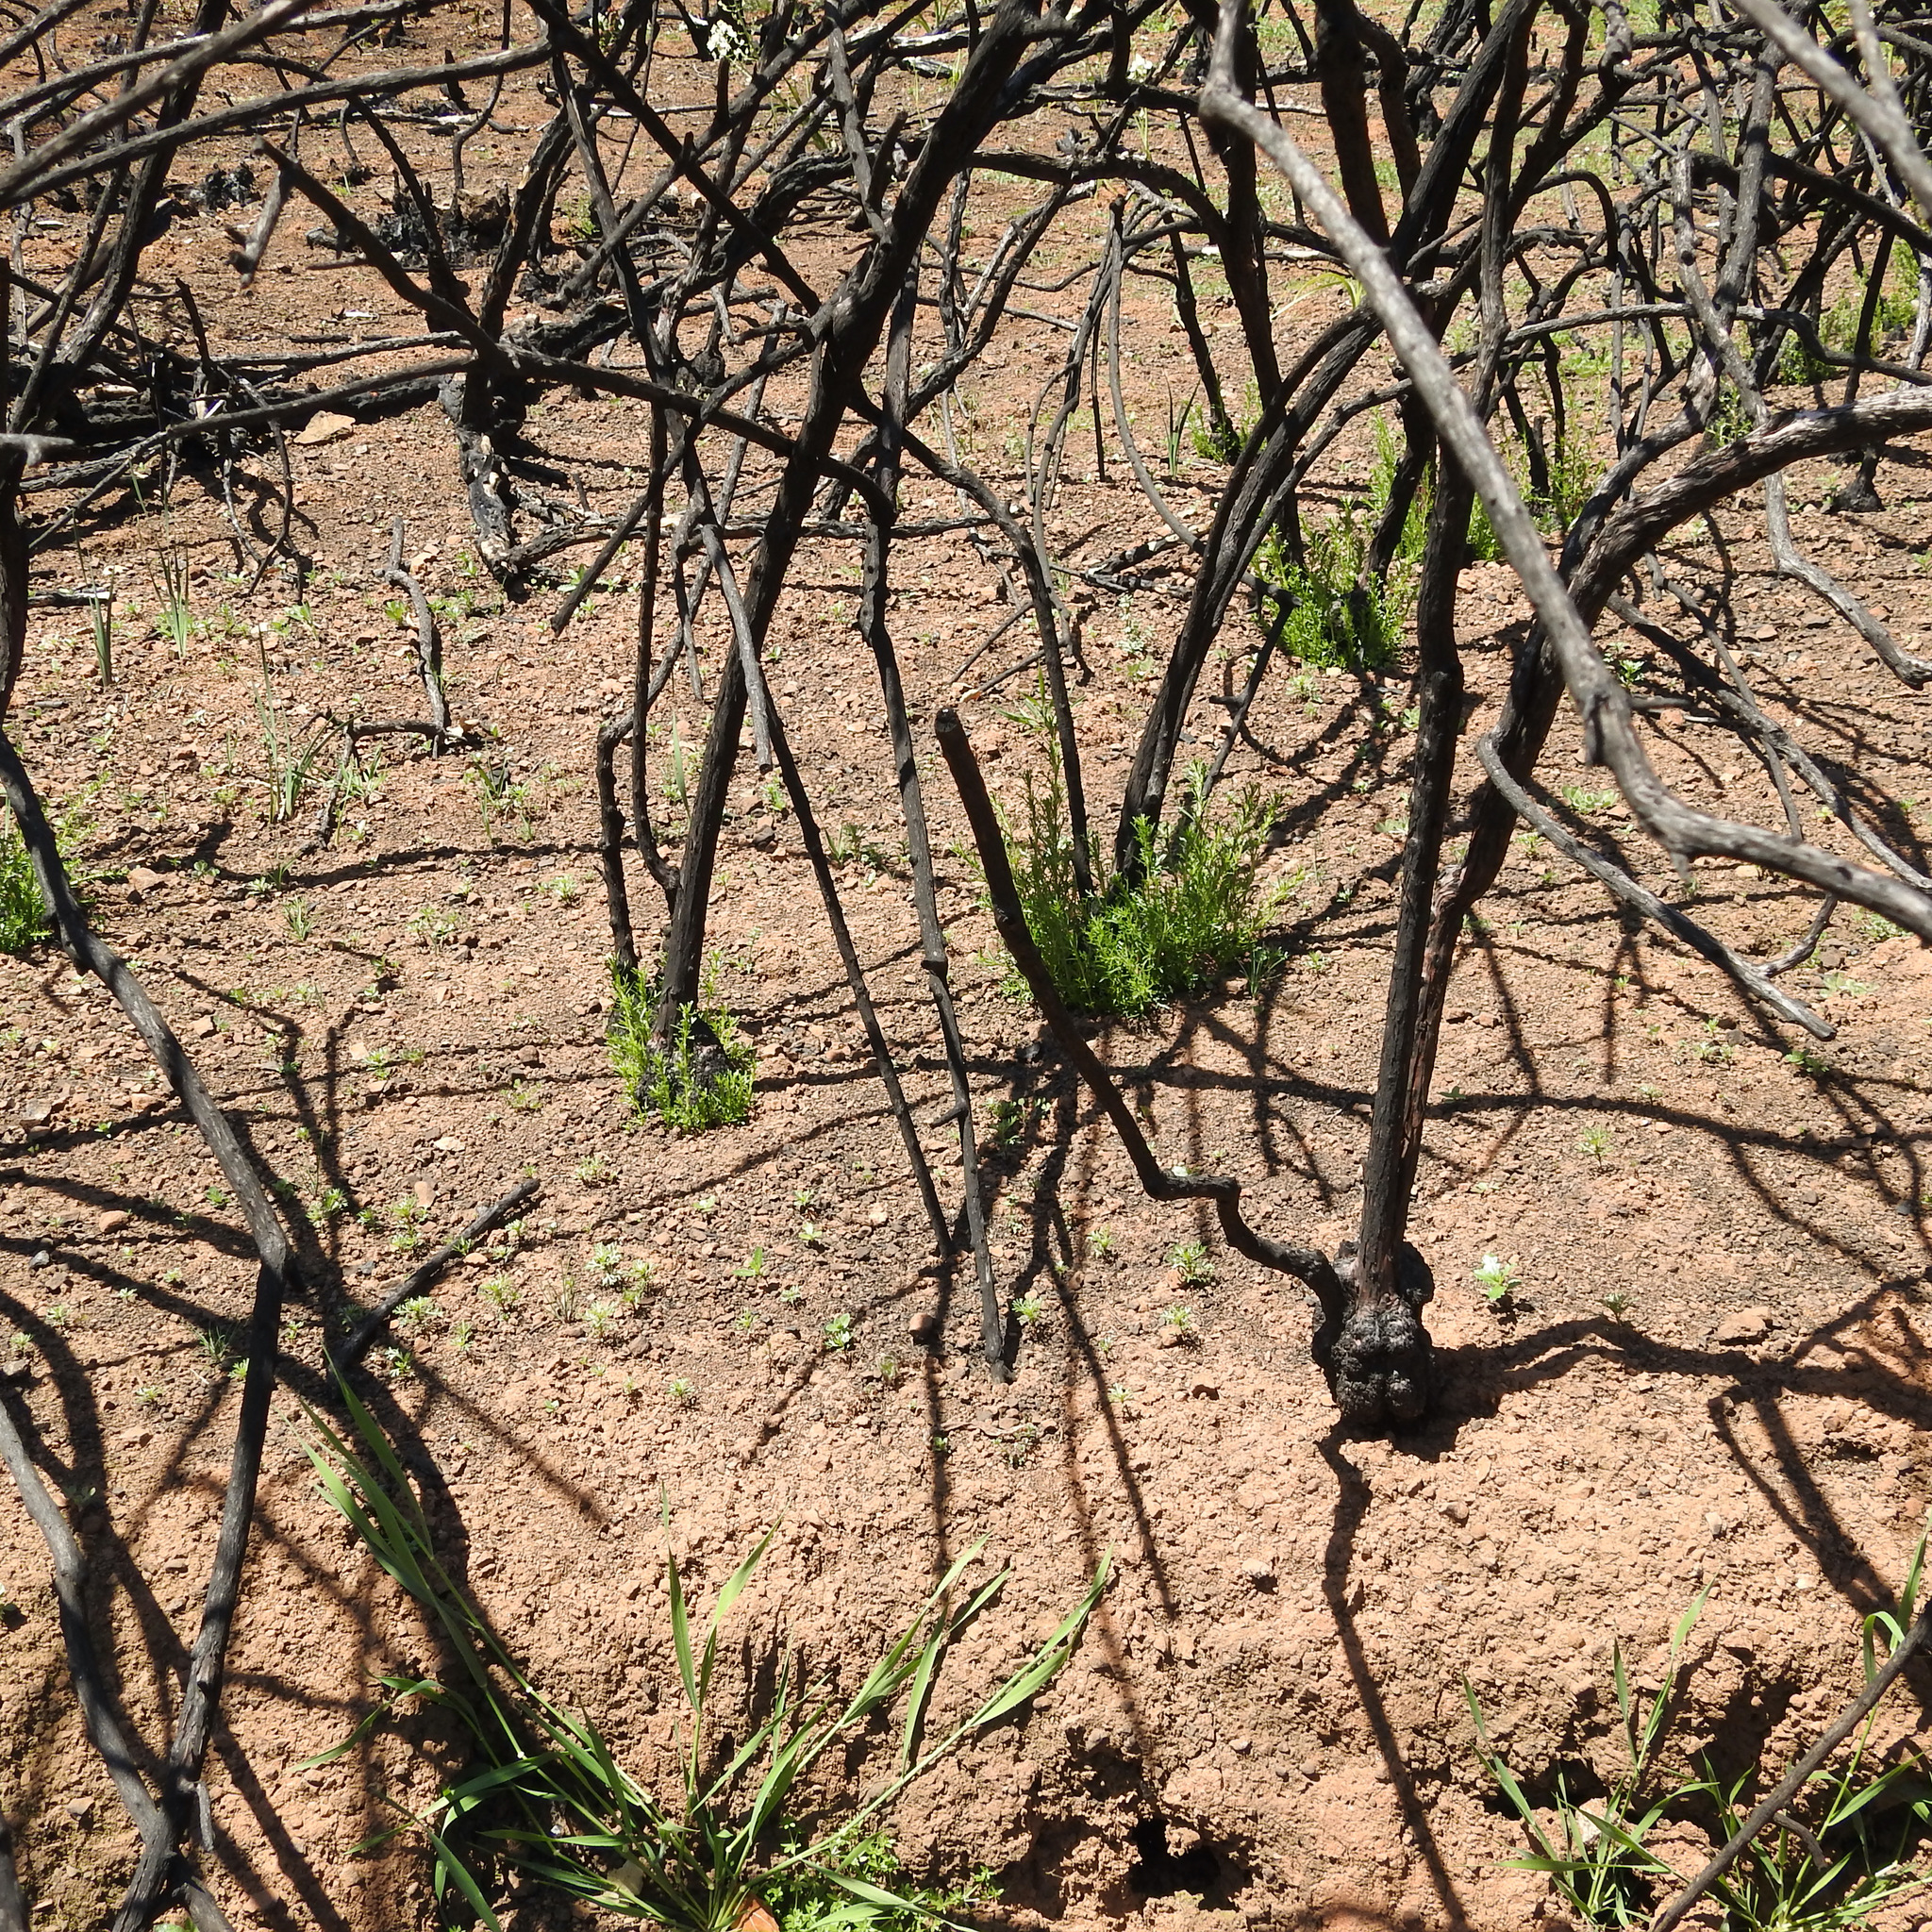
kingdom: Plantae
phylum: Tracheophyta
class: Magnoliopsida
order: Rosales
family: Rosaceae
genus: Adenostoma
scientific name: Adenostoma fasciculatum
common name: Chamise
